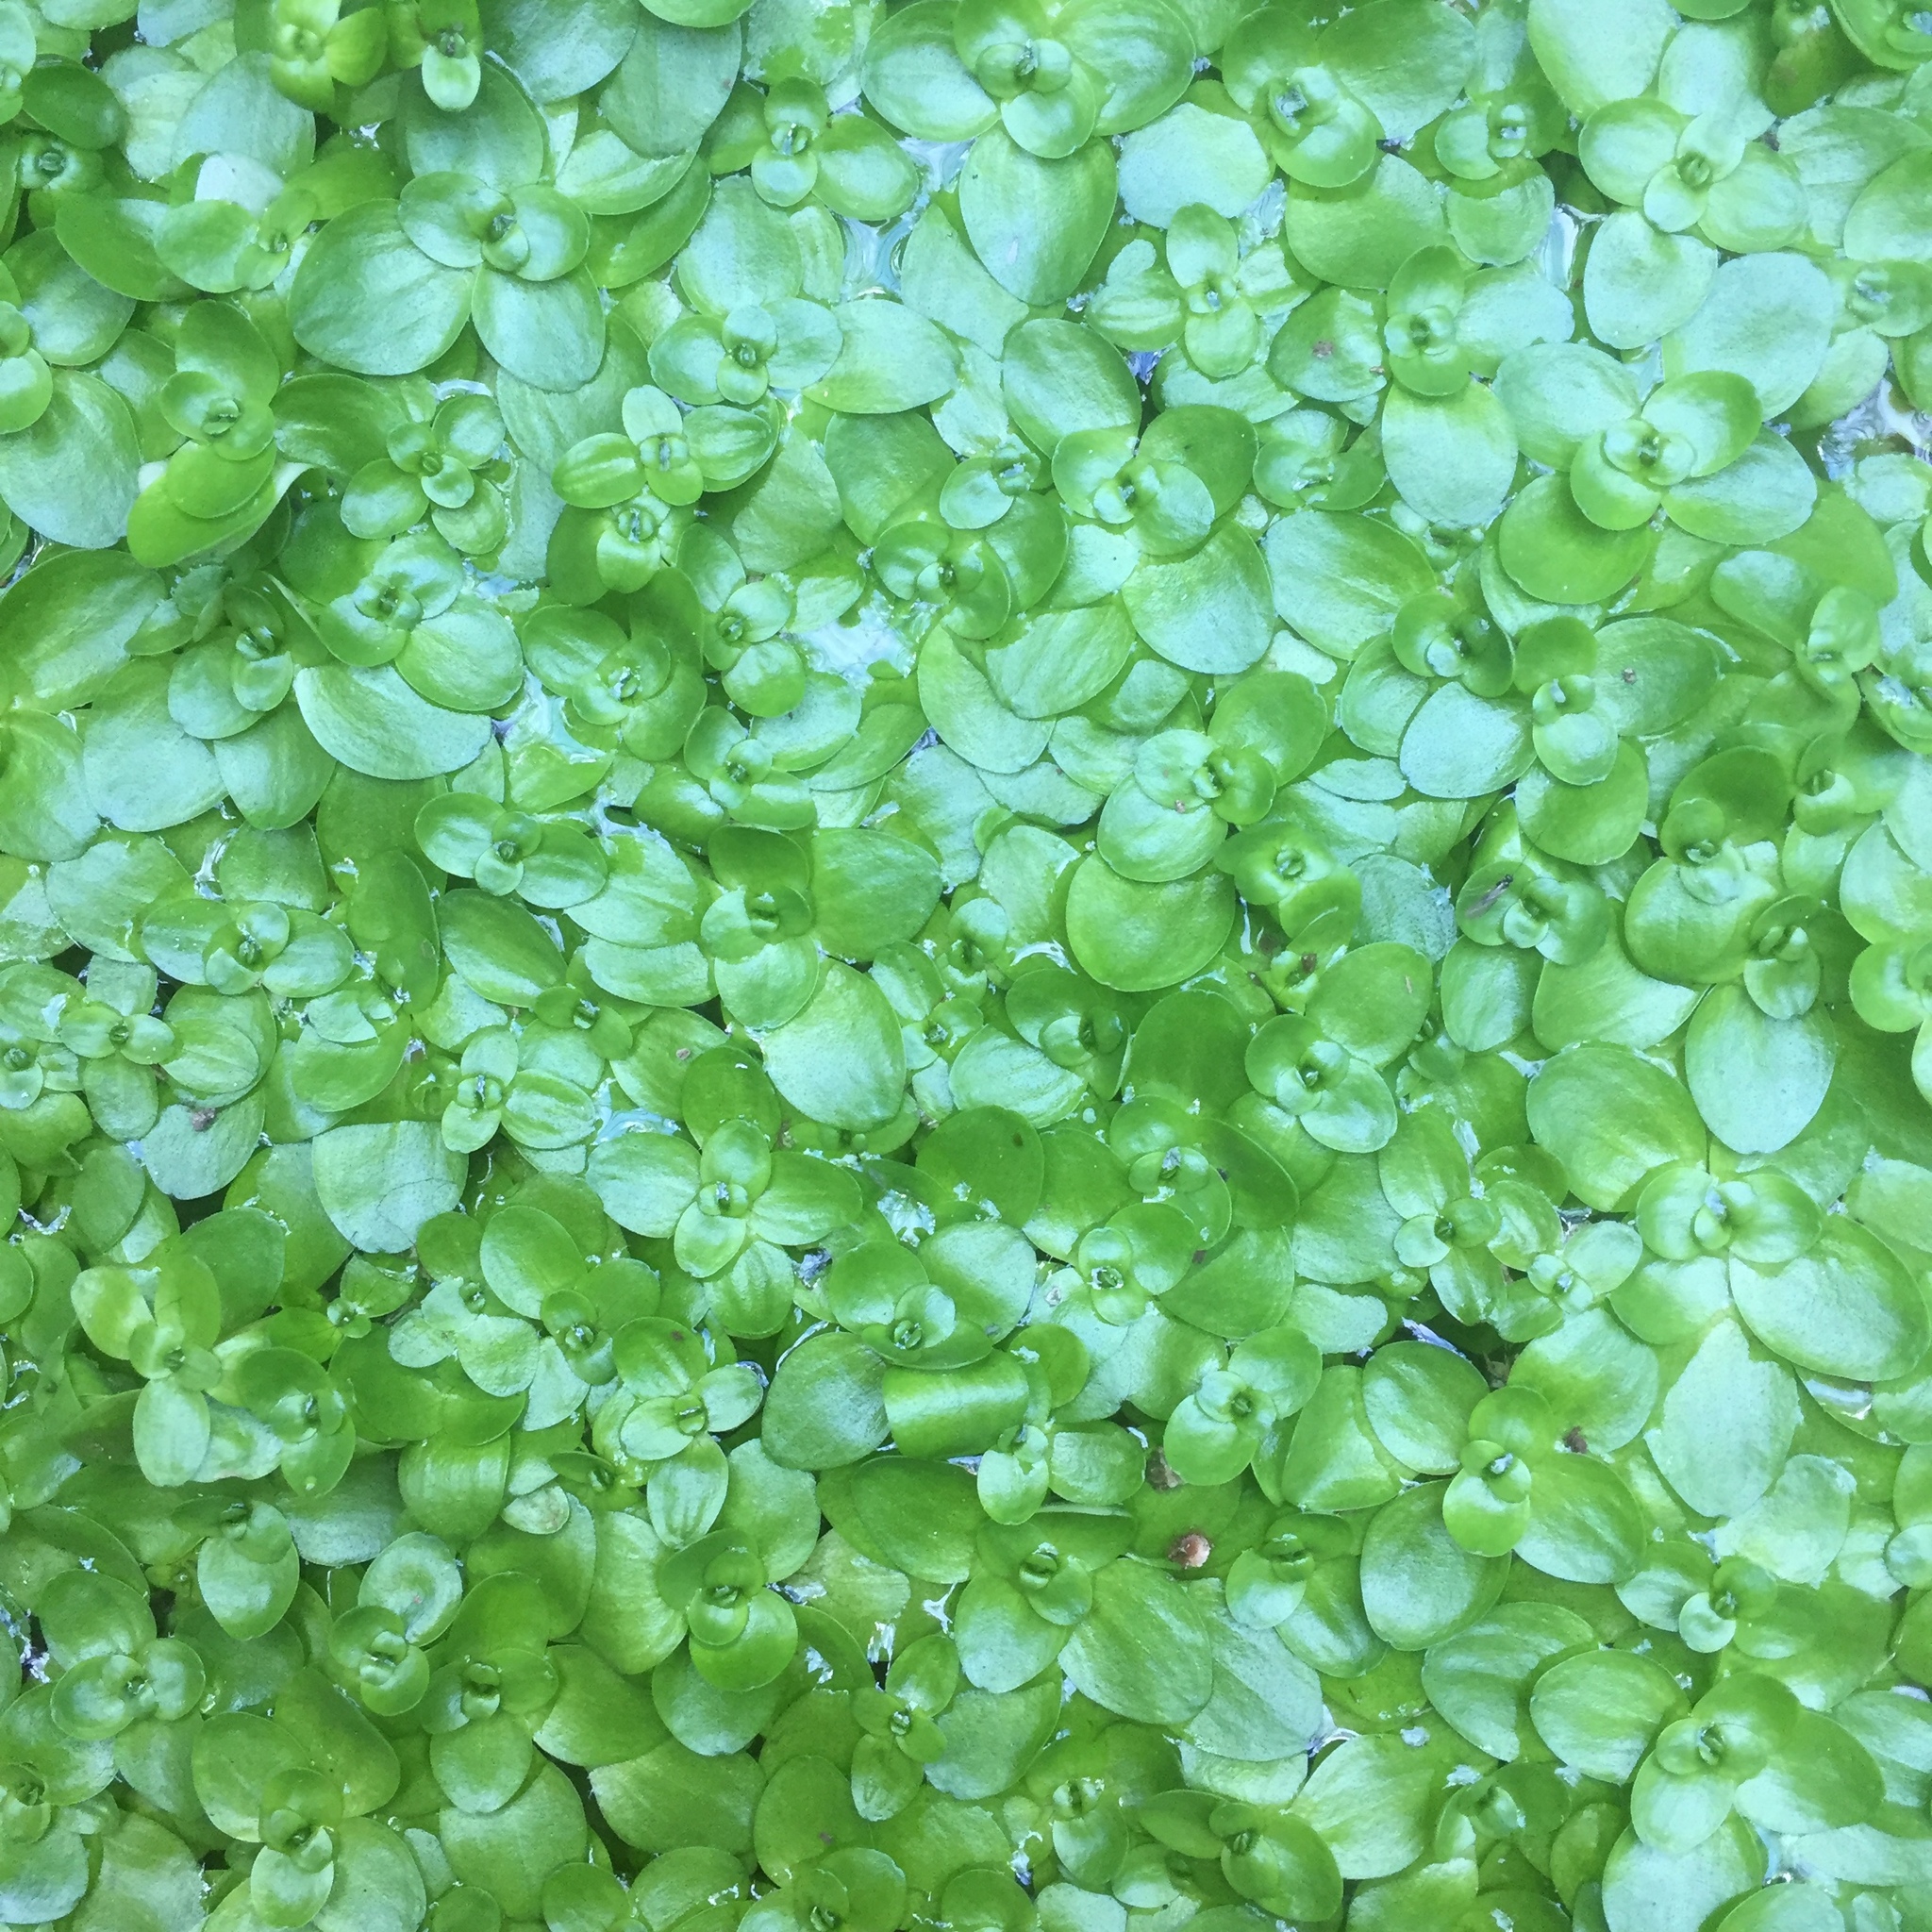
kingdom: Plantae
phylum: Tracheophyta
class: Magnoliopsida
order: Lamiales
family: Plantaginaceae
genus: Callitriche
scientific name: Callitriche stagnalis
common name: Common water-starwort
